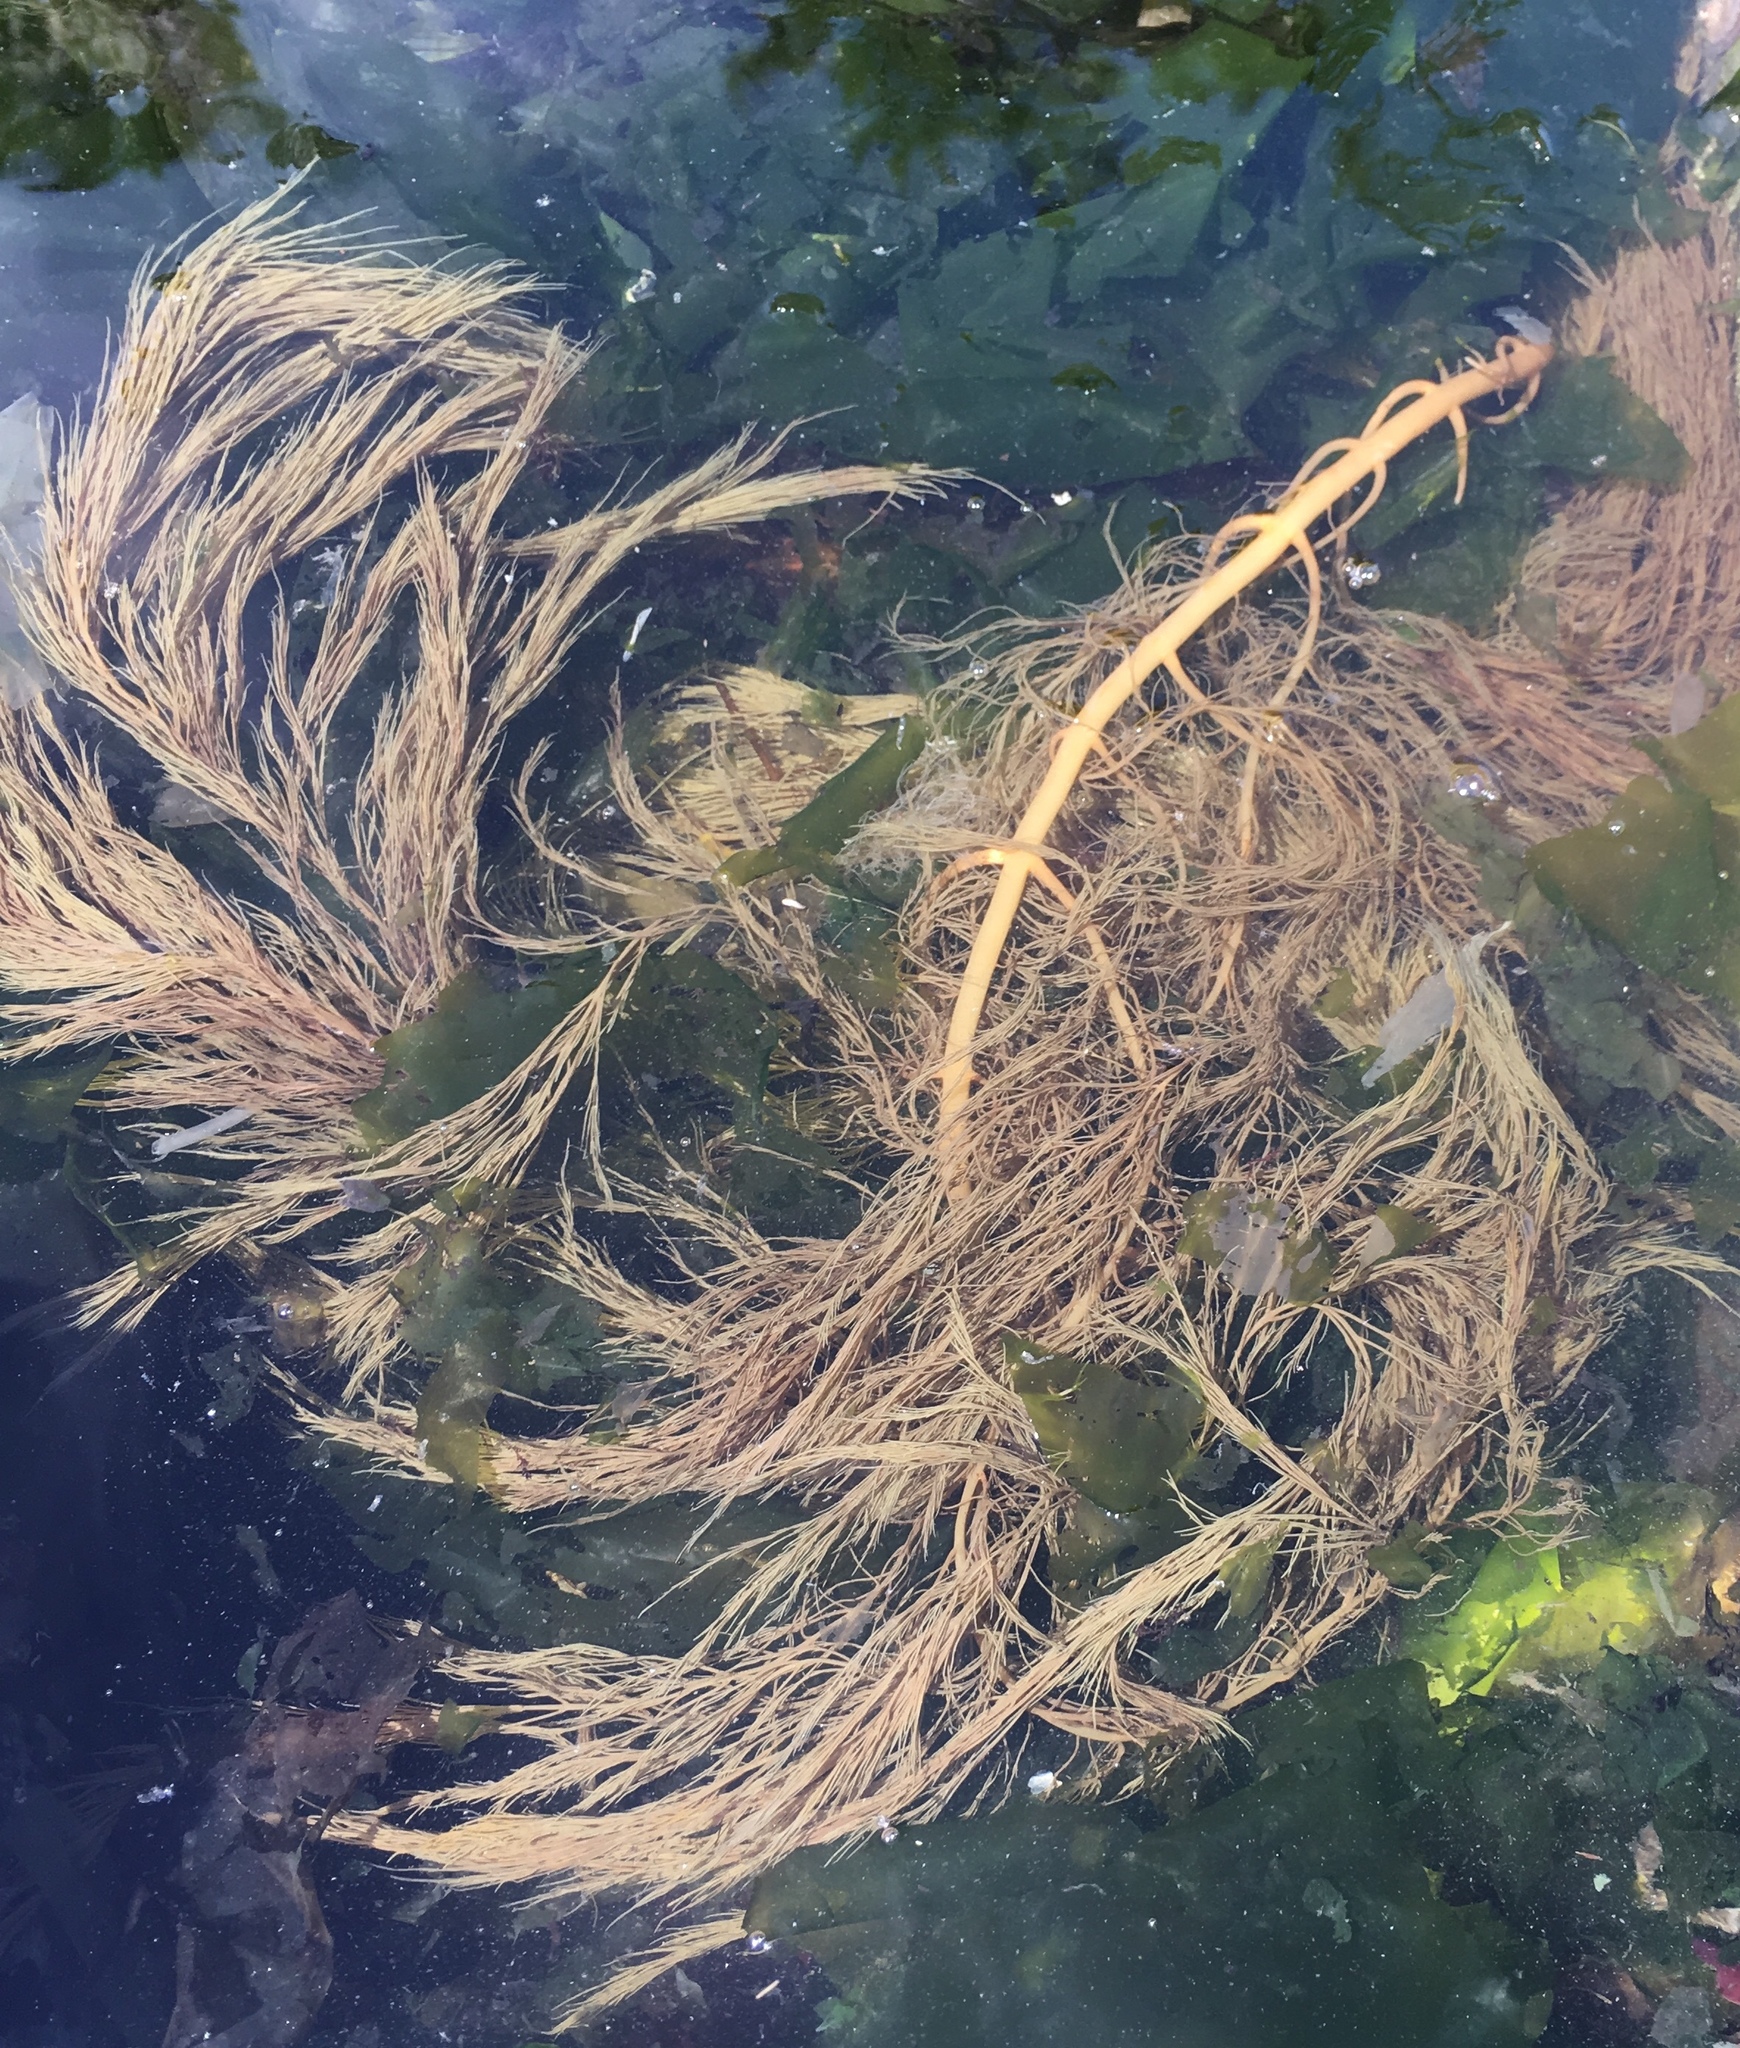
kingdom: Chromista
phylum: Ochrophyta
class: Phaeophyceae
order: Desmarestiales
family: Desmarestiaceae
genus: Desmarestia
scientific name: Desmarestia viridis
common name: Stringy acid kelp
